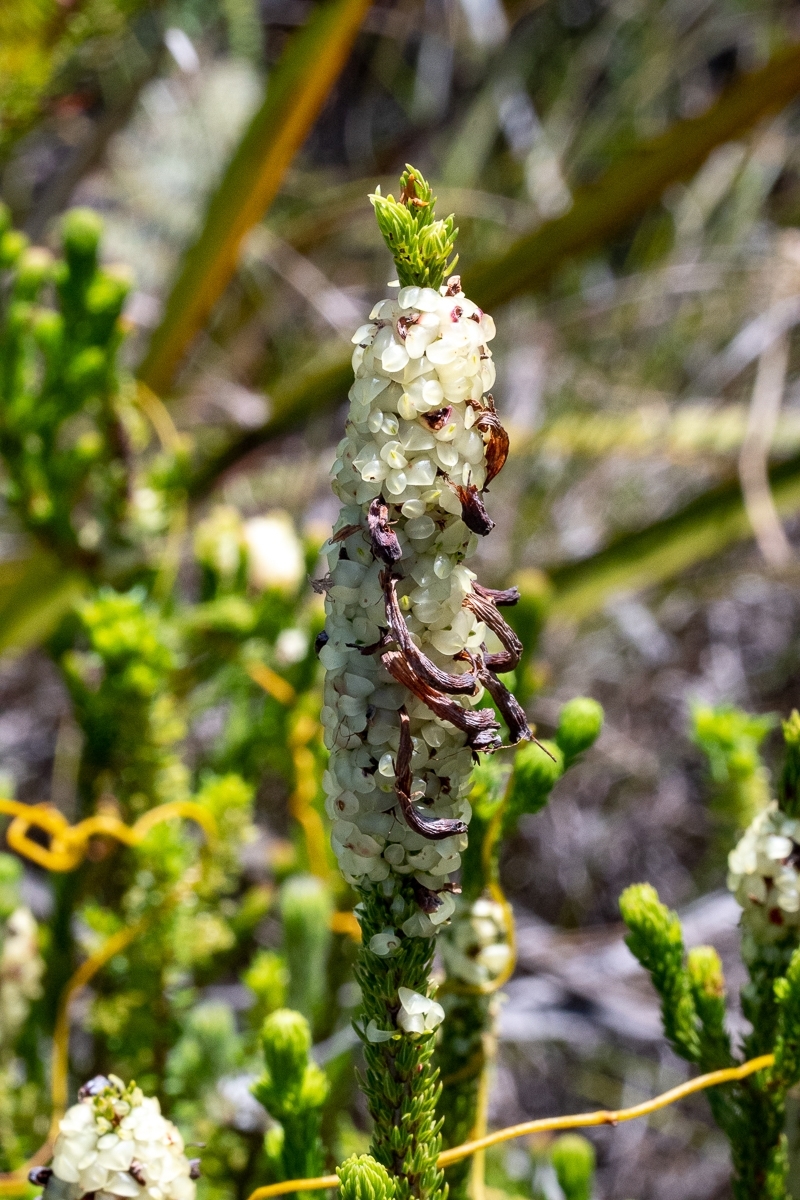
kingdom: Plantae
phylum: Tracheophyta
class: Magnoliopsida
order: Ericales
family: Ericaceae
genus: Erica
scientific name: Erica sessiliflora
